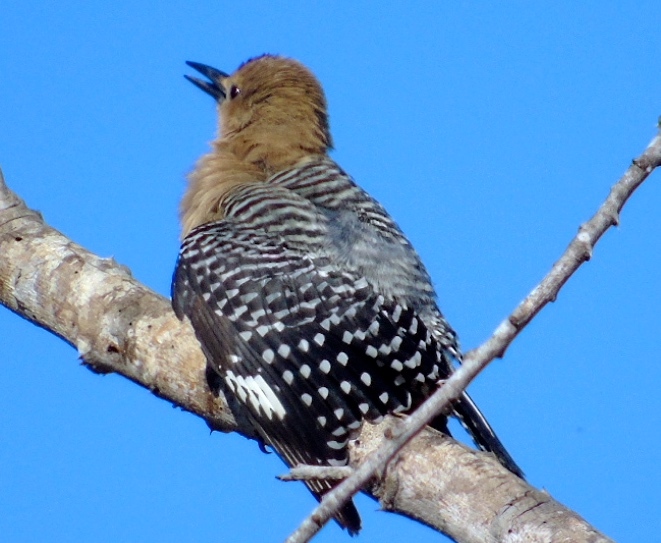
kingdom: Animalia
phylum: Chordata
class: Aves
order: Piciformes
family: Picidae
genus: Melanerpes
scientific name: Melanerpes uropygialis
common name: Gila woodpecker
